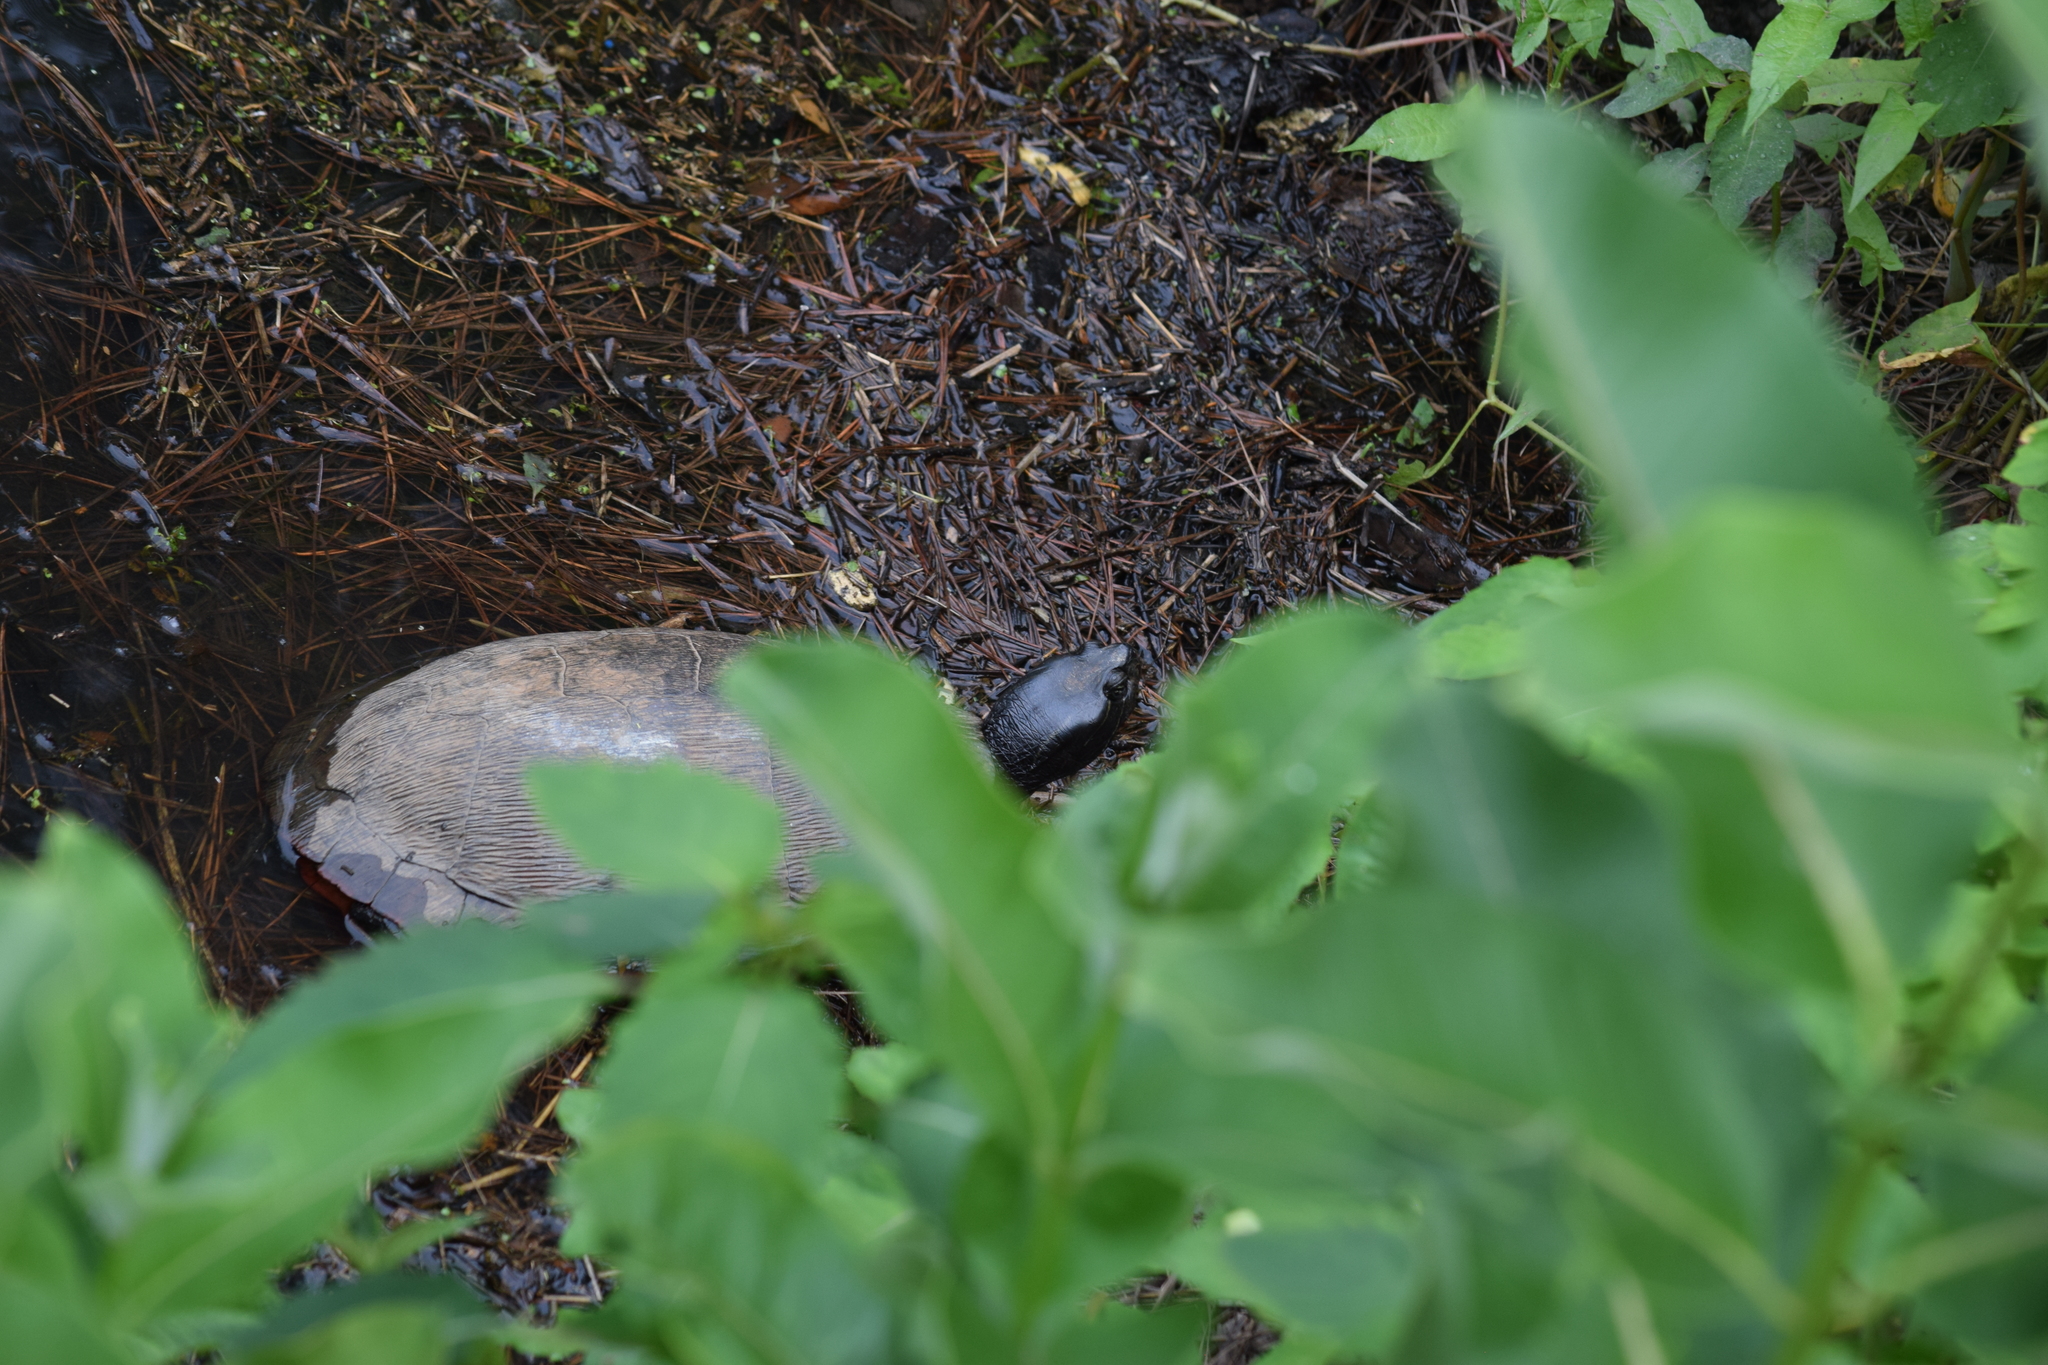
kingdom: Animalia
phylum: Chordata
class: Testudines
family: Emydidae
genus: Pseudemys
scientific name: Pseudemys rubriventris
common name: American red-bellied turtle
